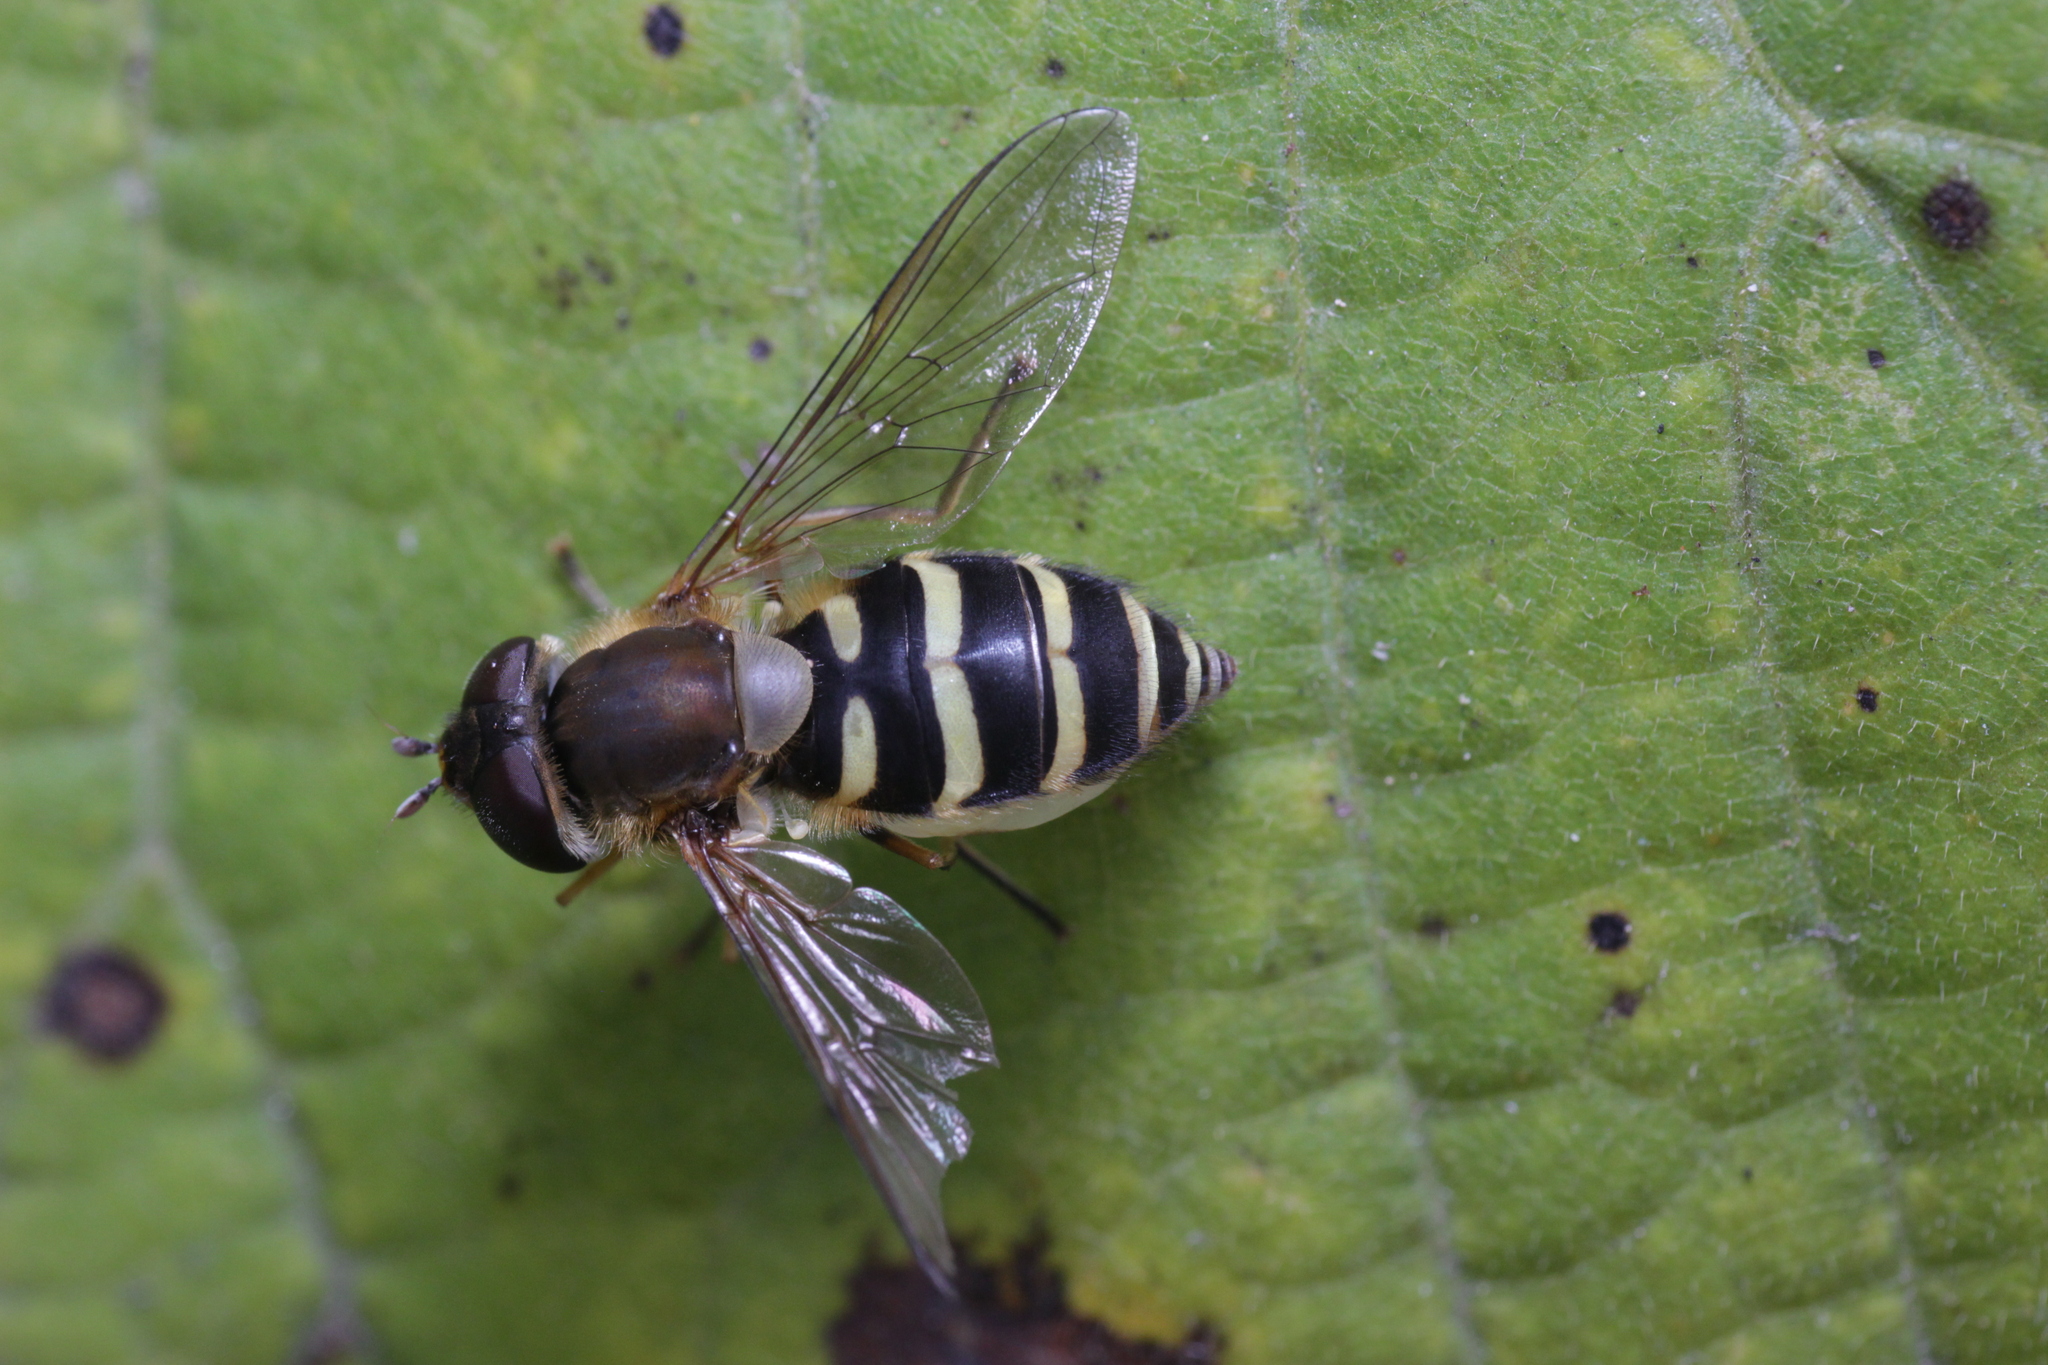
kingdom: Animalia
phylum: Arthropoda
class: Insecta
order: Diptera
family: Syrphidae
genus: Syrphus
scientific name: Syrphus
